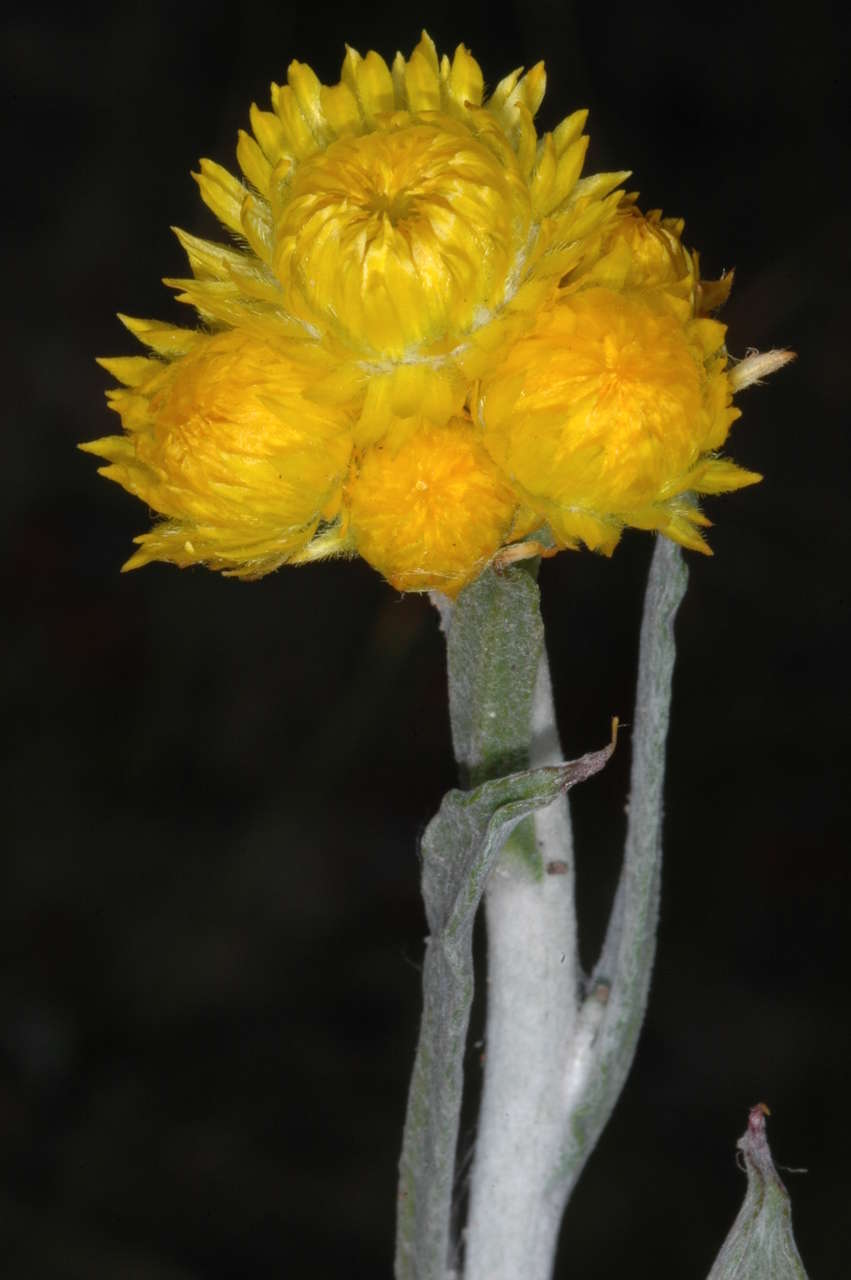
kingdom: Plantae
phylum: Tracheophyta
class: Magnoliopsida
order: Asterales
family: Asteraceae
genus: Chrysocephalum
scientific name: Chrysocephalum apiculatum
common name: Common everlasting
